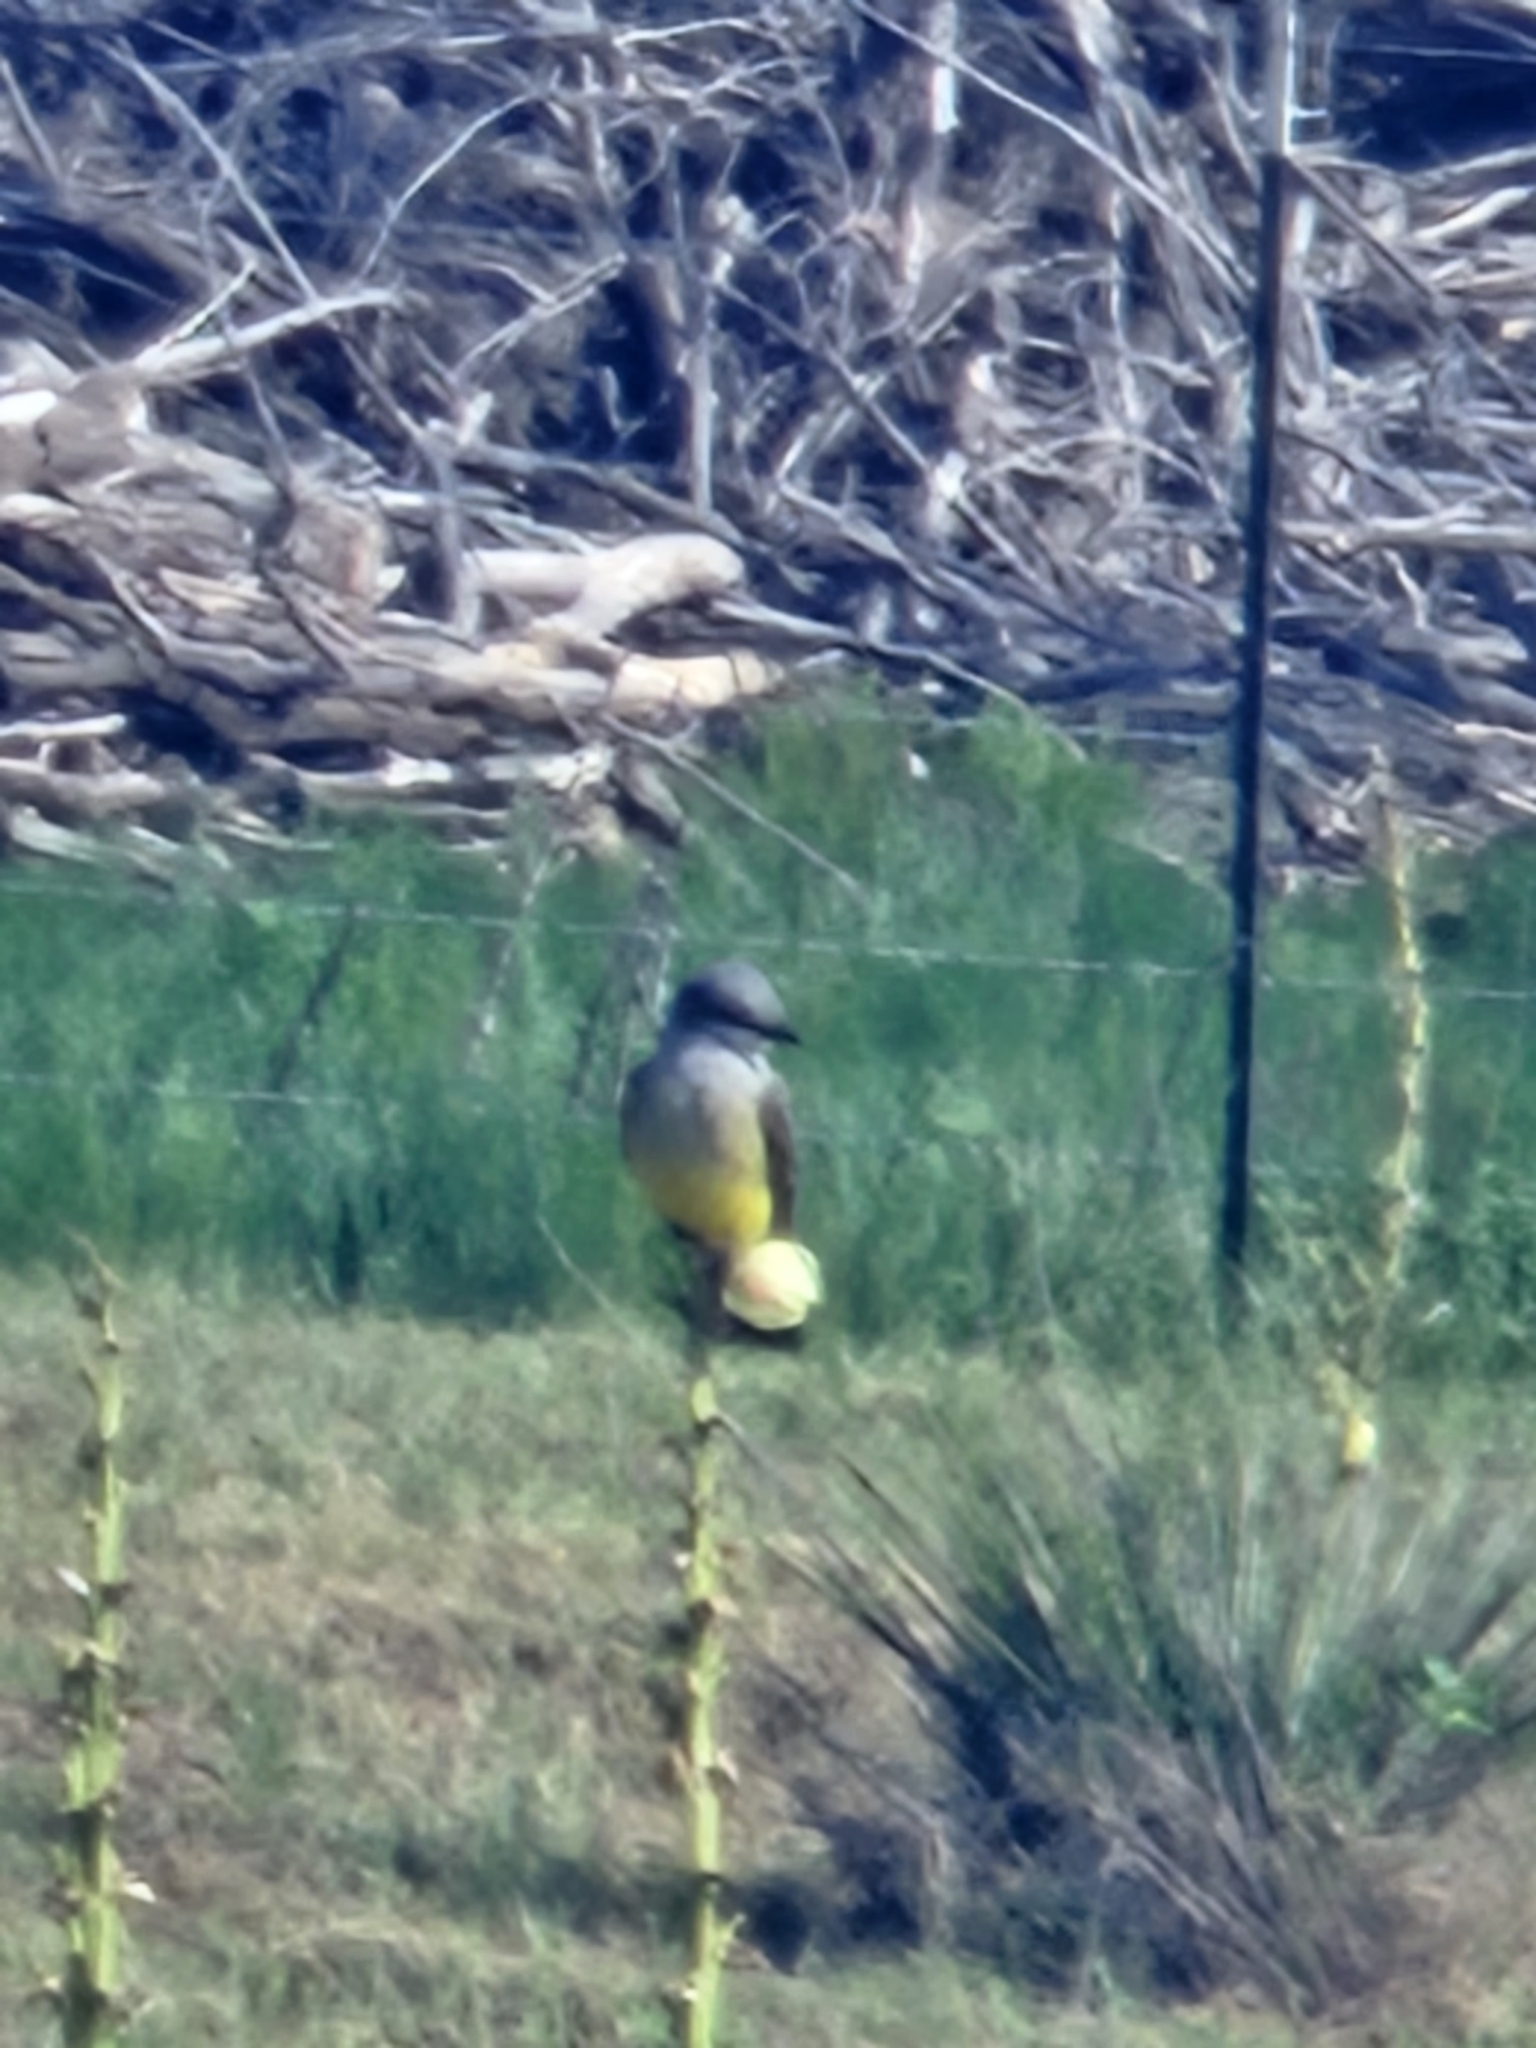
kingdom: Animalia
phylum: Chordata
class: Aves
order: Passeriformes
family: Tyrannidae
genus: Tyrannus
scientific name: Tyrannus verticalis
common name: Western kingbird
